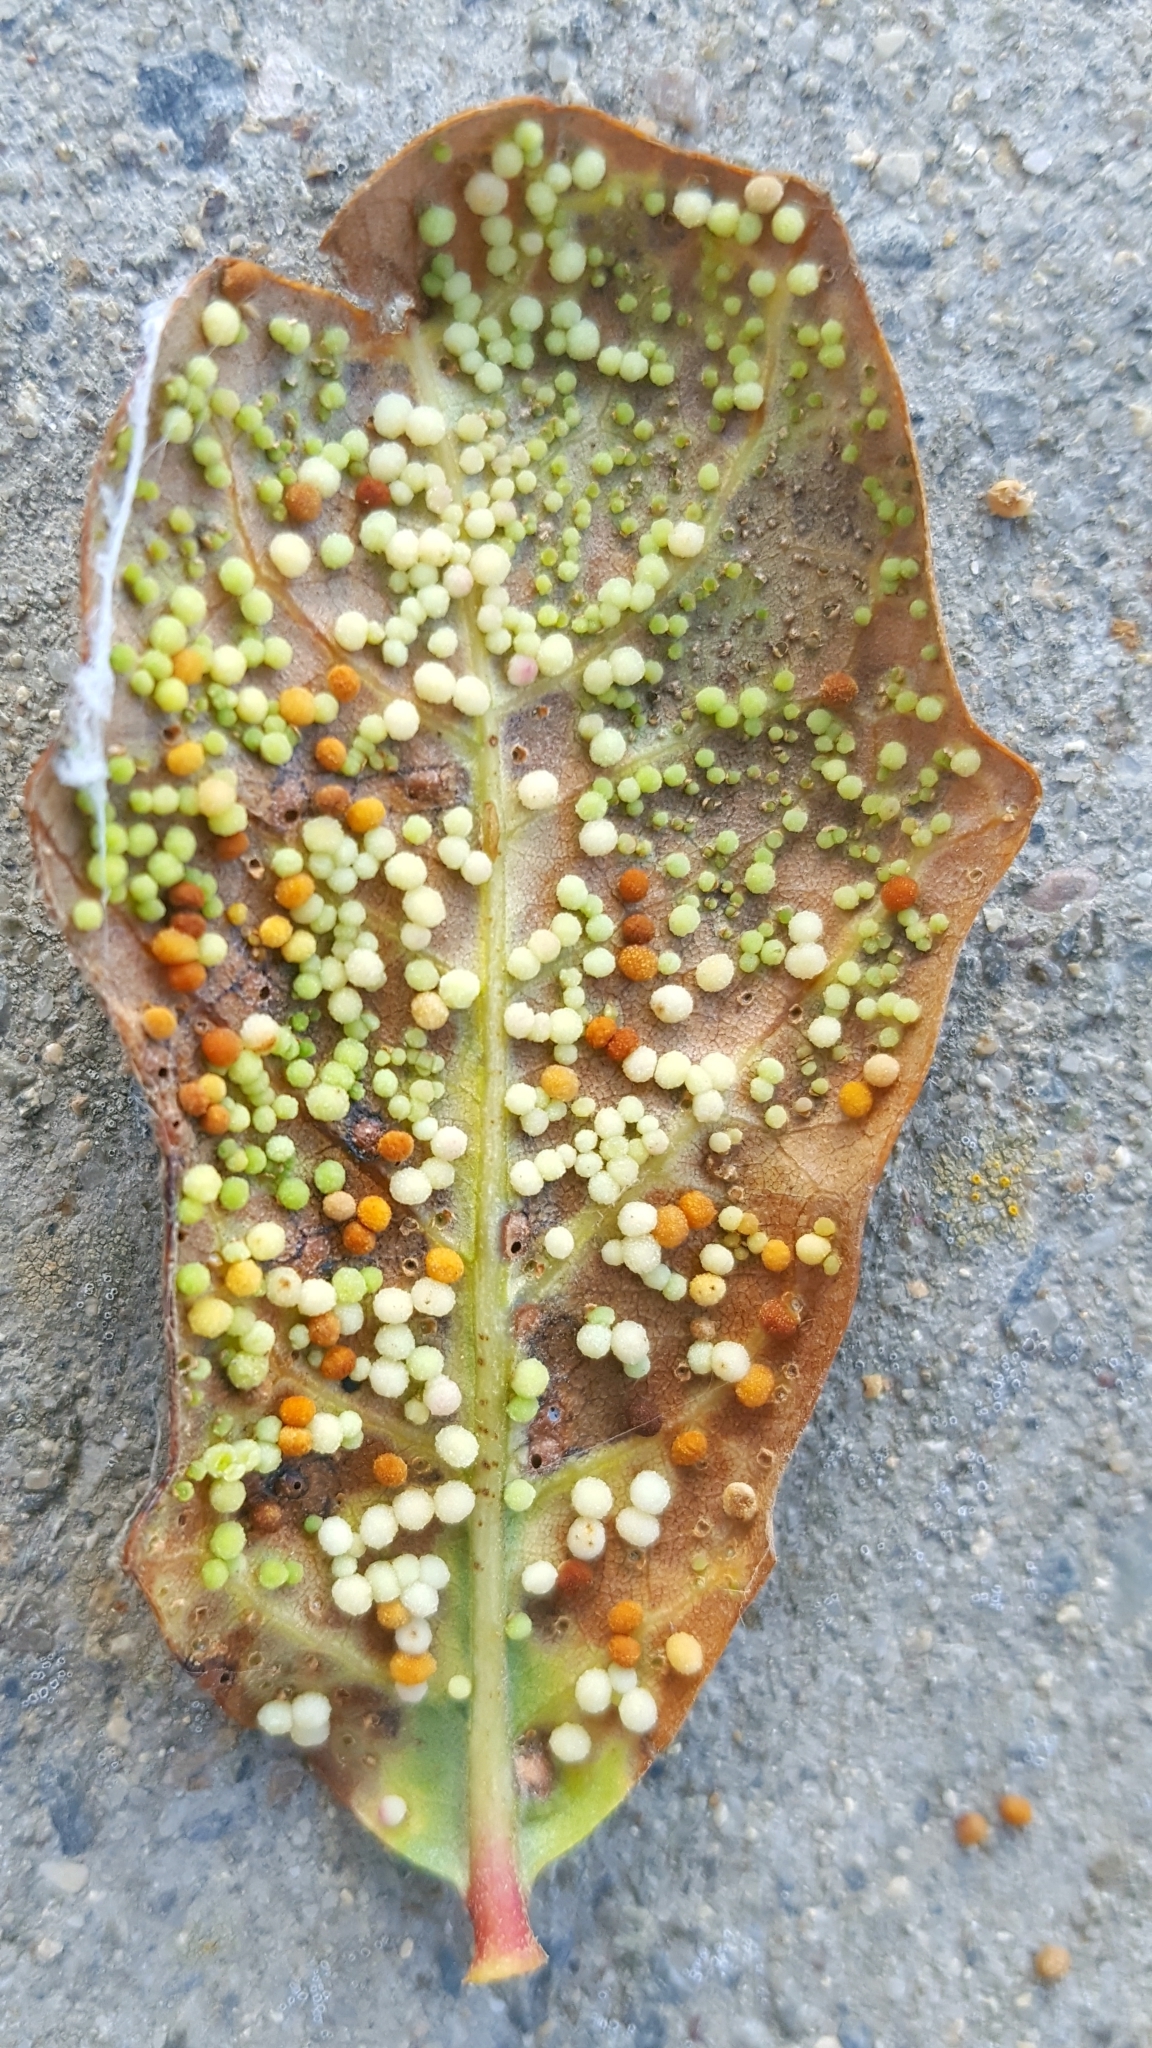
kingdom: Animalia
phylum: Arthropoda
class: Insecta
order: Hymenoptera
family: Cynipidae
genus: Neuroterus
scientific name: Neuroterus saltarius
